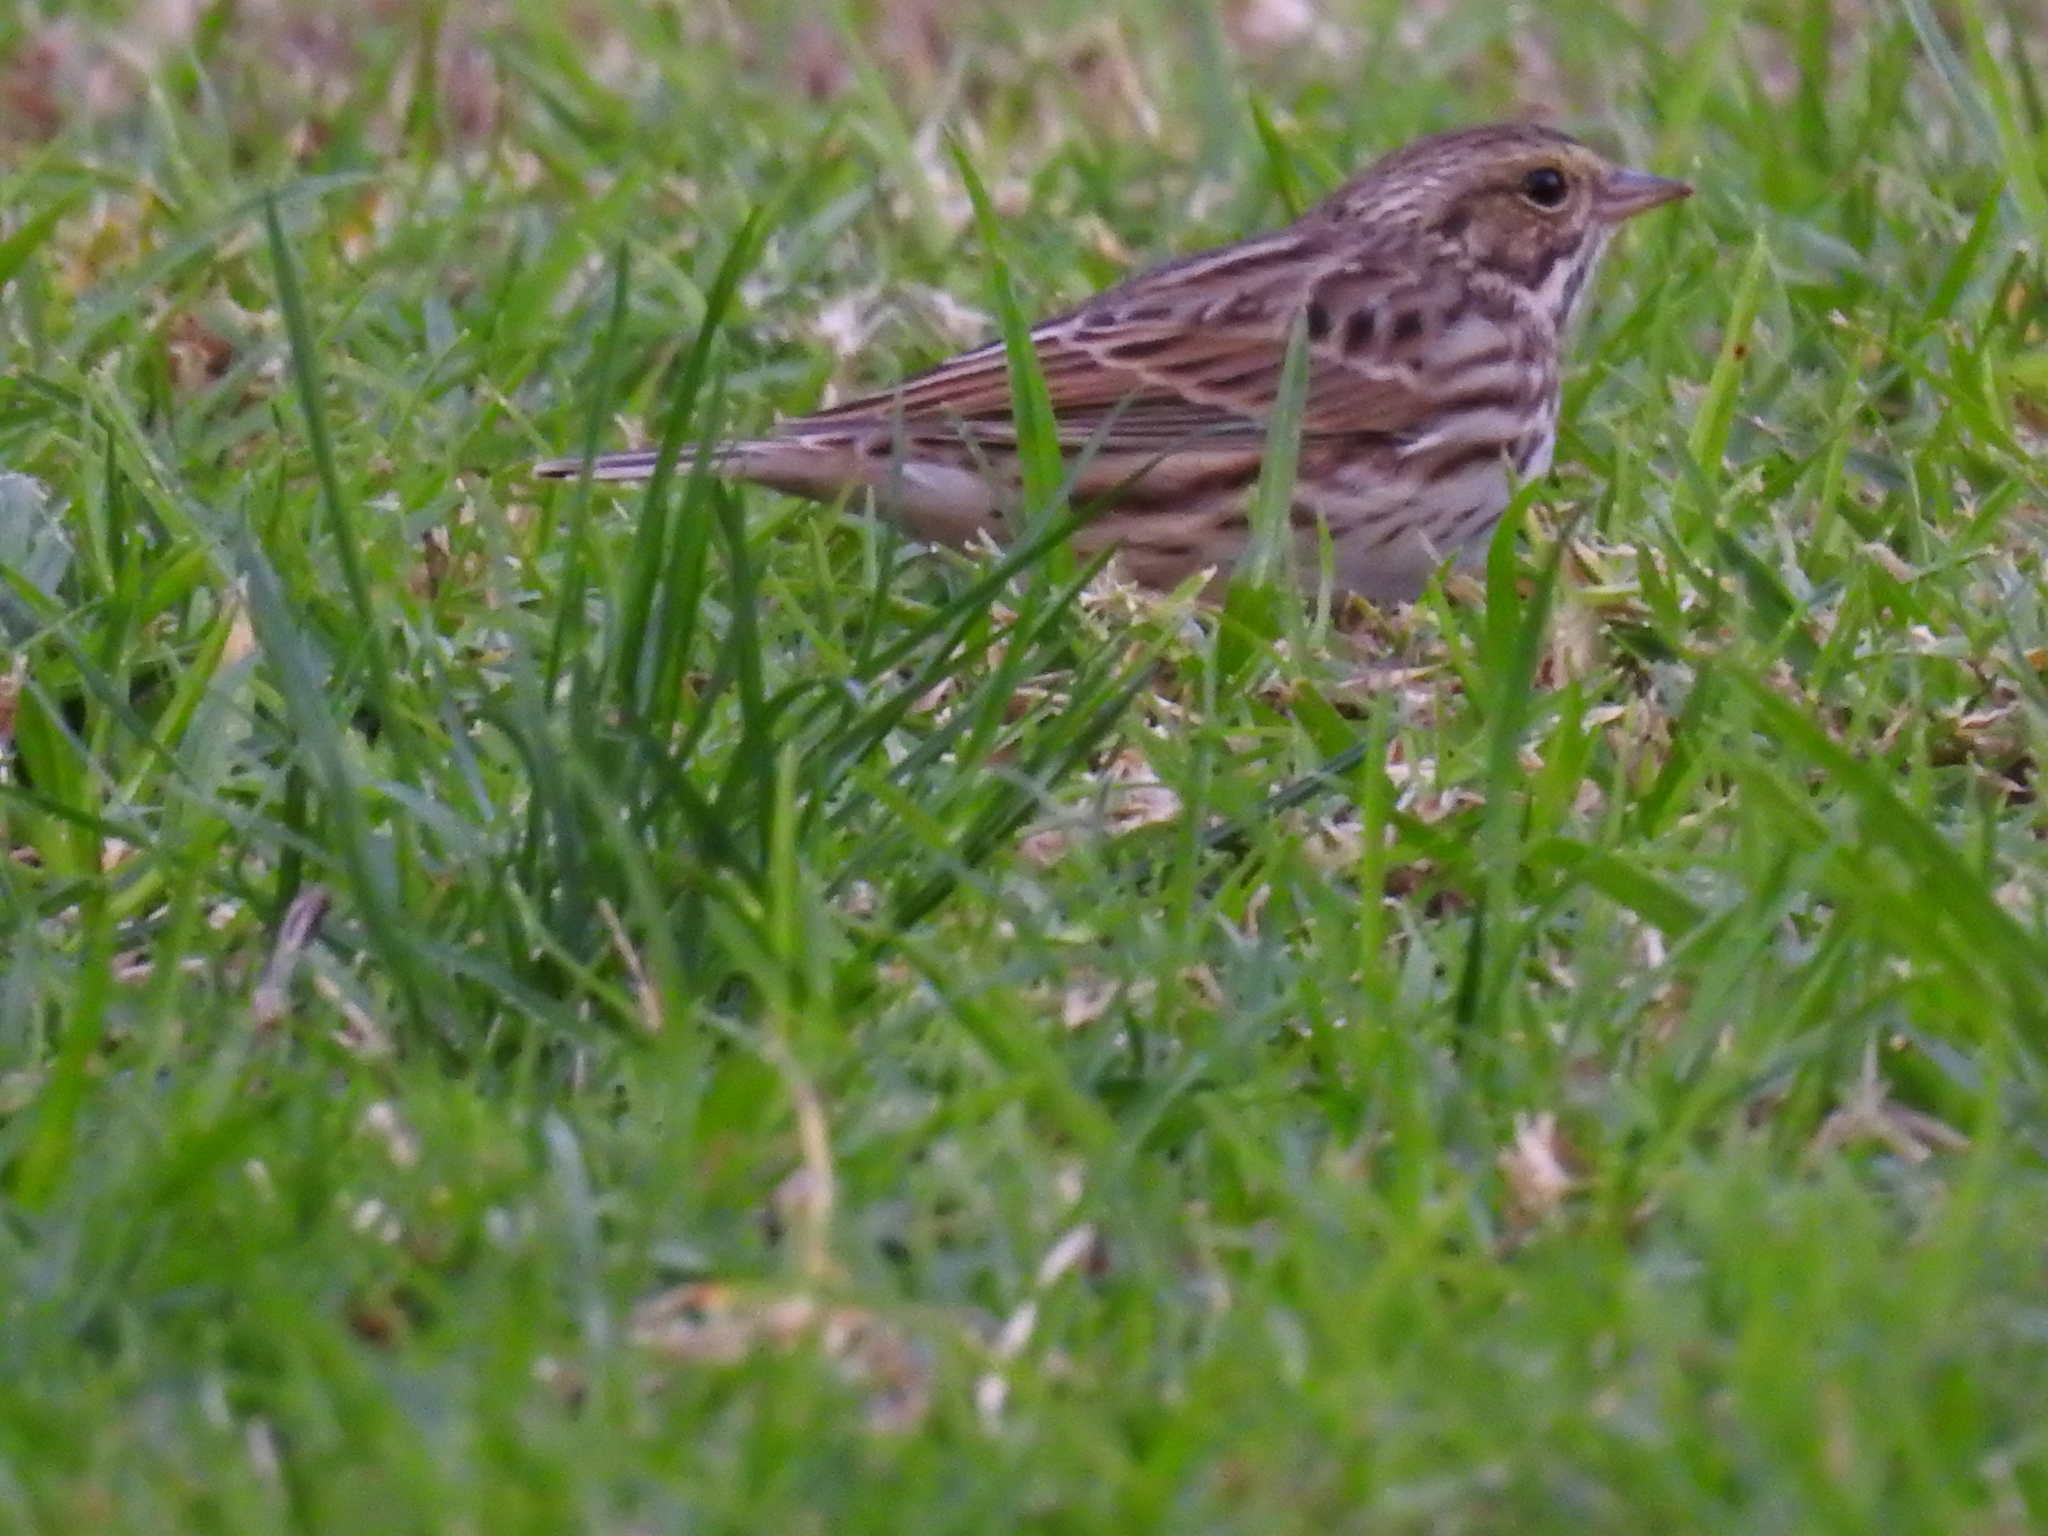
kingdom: Animalia
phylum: Chordata
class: Aves
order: Passeriformes
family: Passerellidae
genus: Passerculus
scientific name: Passerculus sandwichensis
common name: Savannah sparrow
